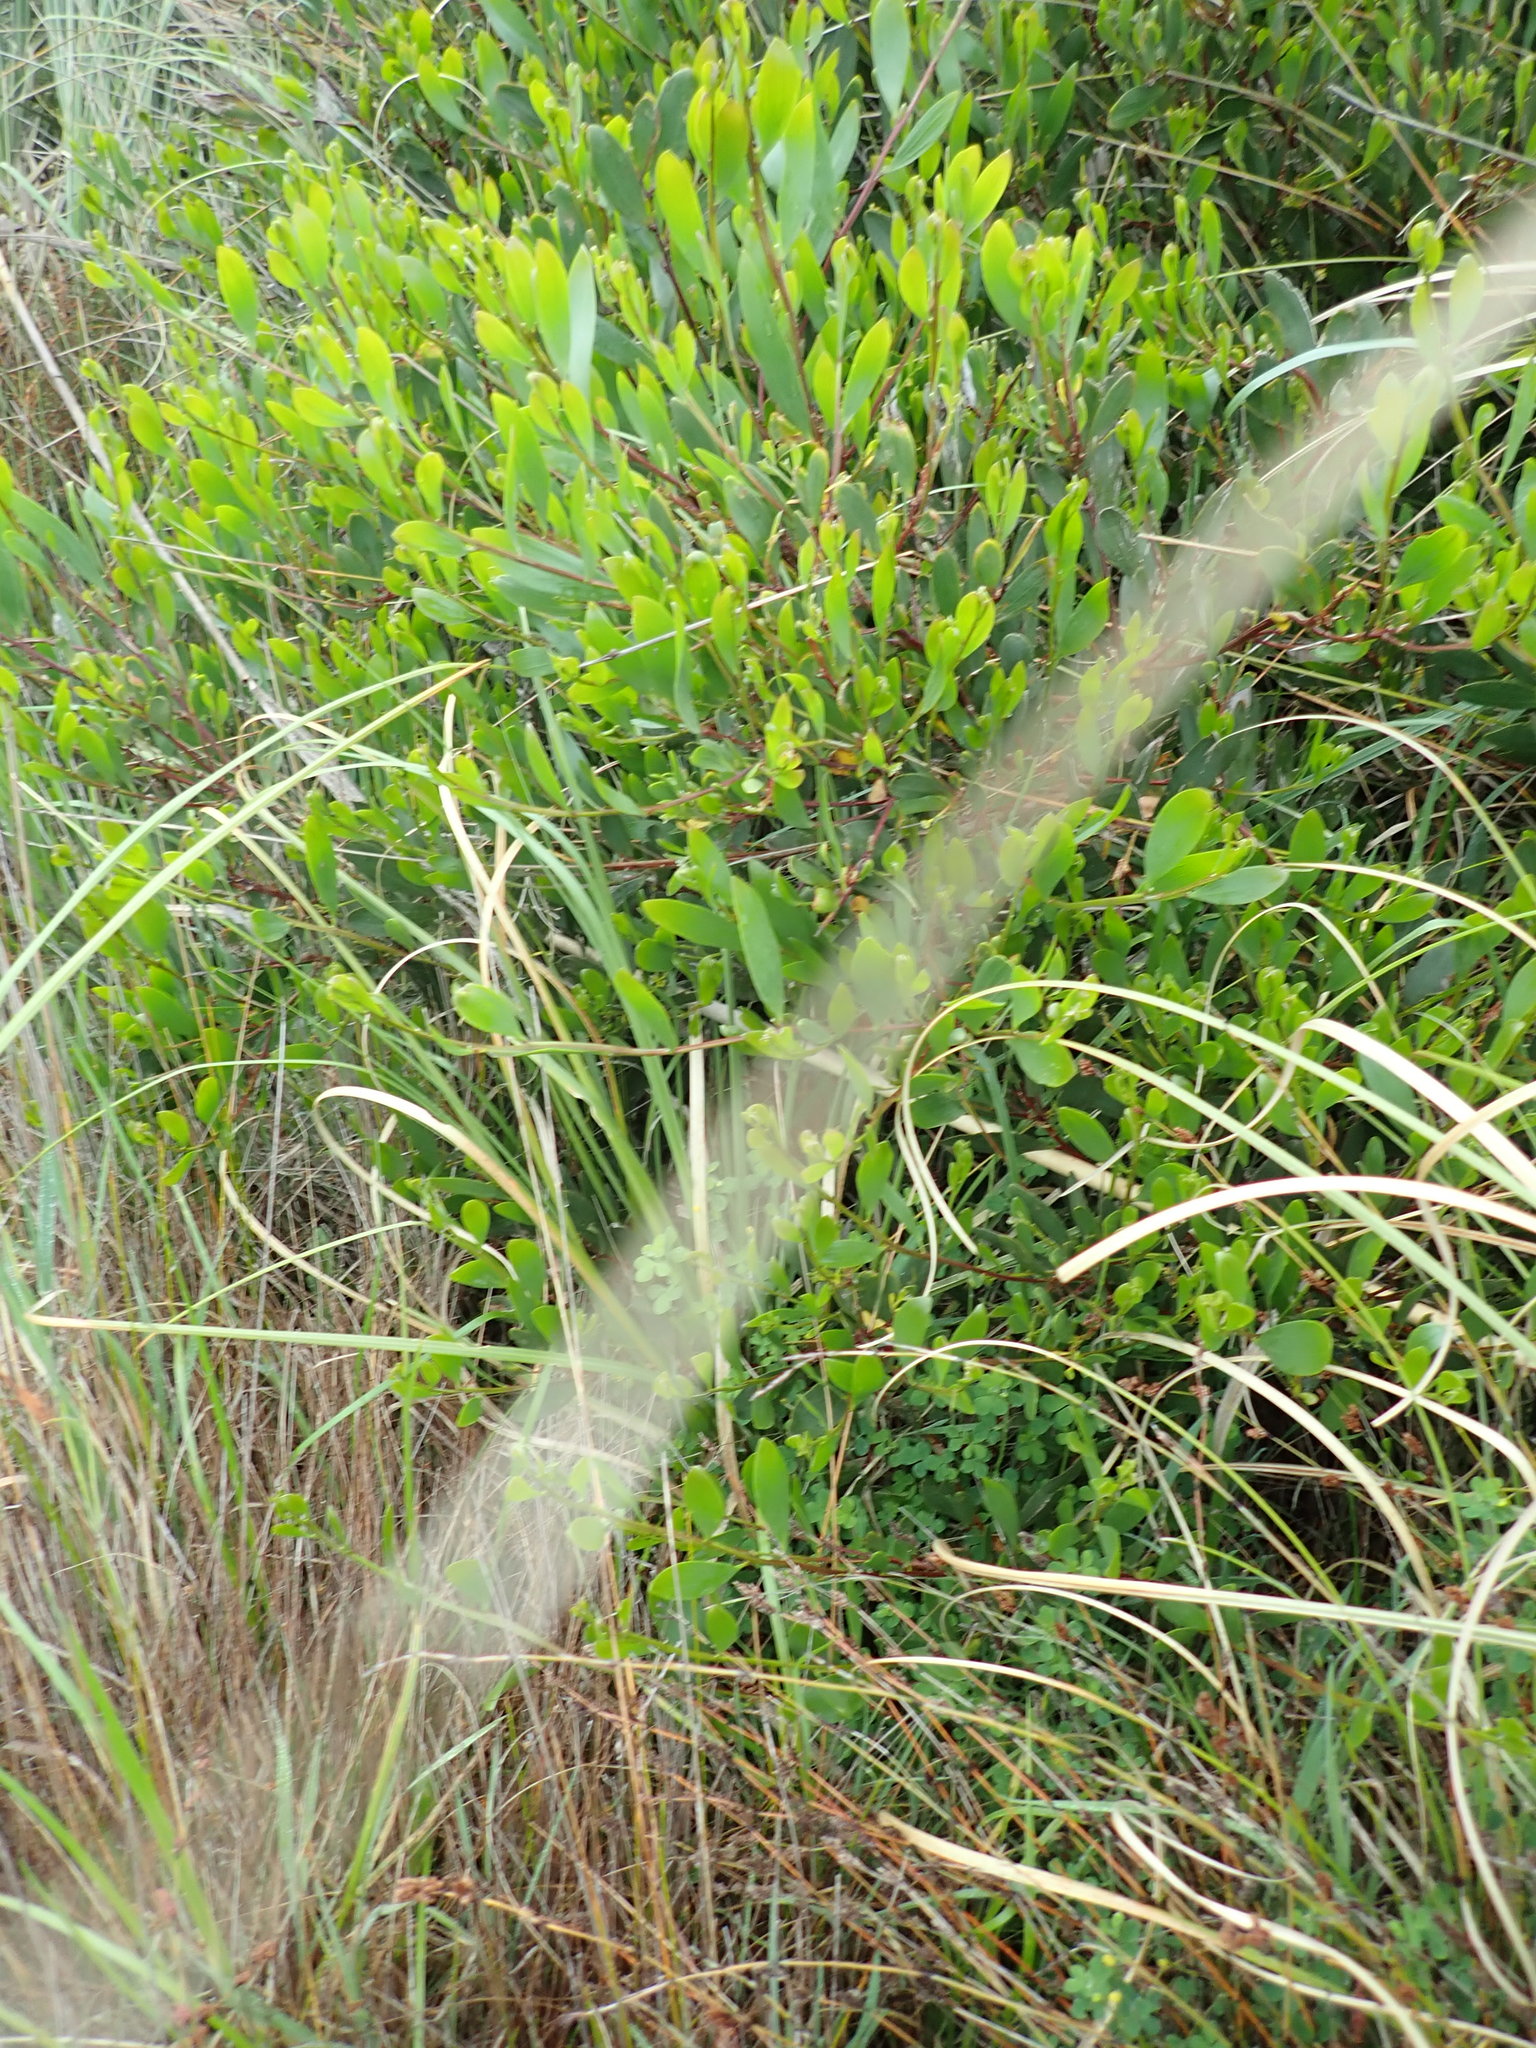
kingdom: Plantae
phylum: Tracheophyta
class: Magnoliopsida
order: Fabales
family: Fabaceae
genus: Acacia
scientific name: Acacia longifolia
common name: Sydney golden wattle
